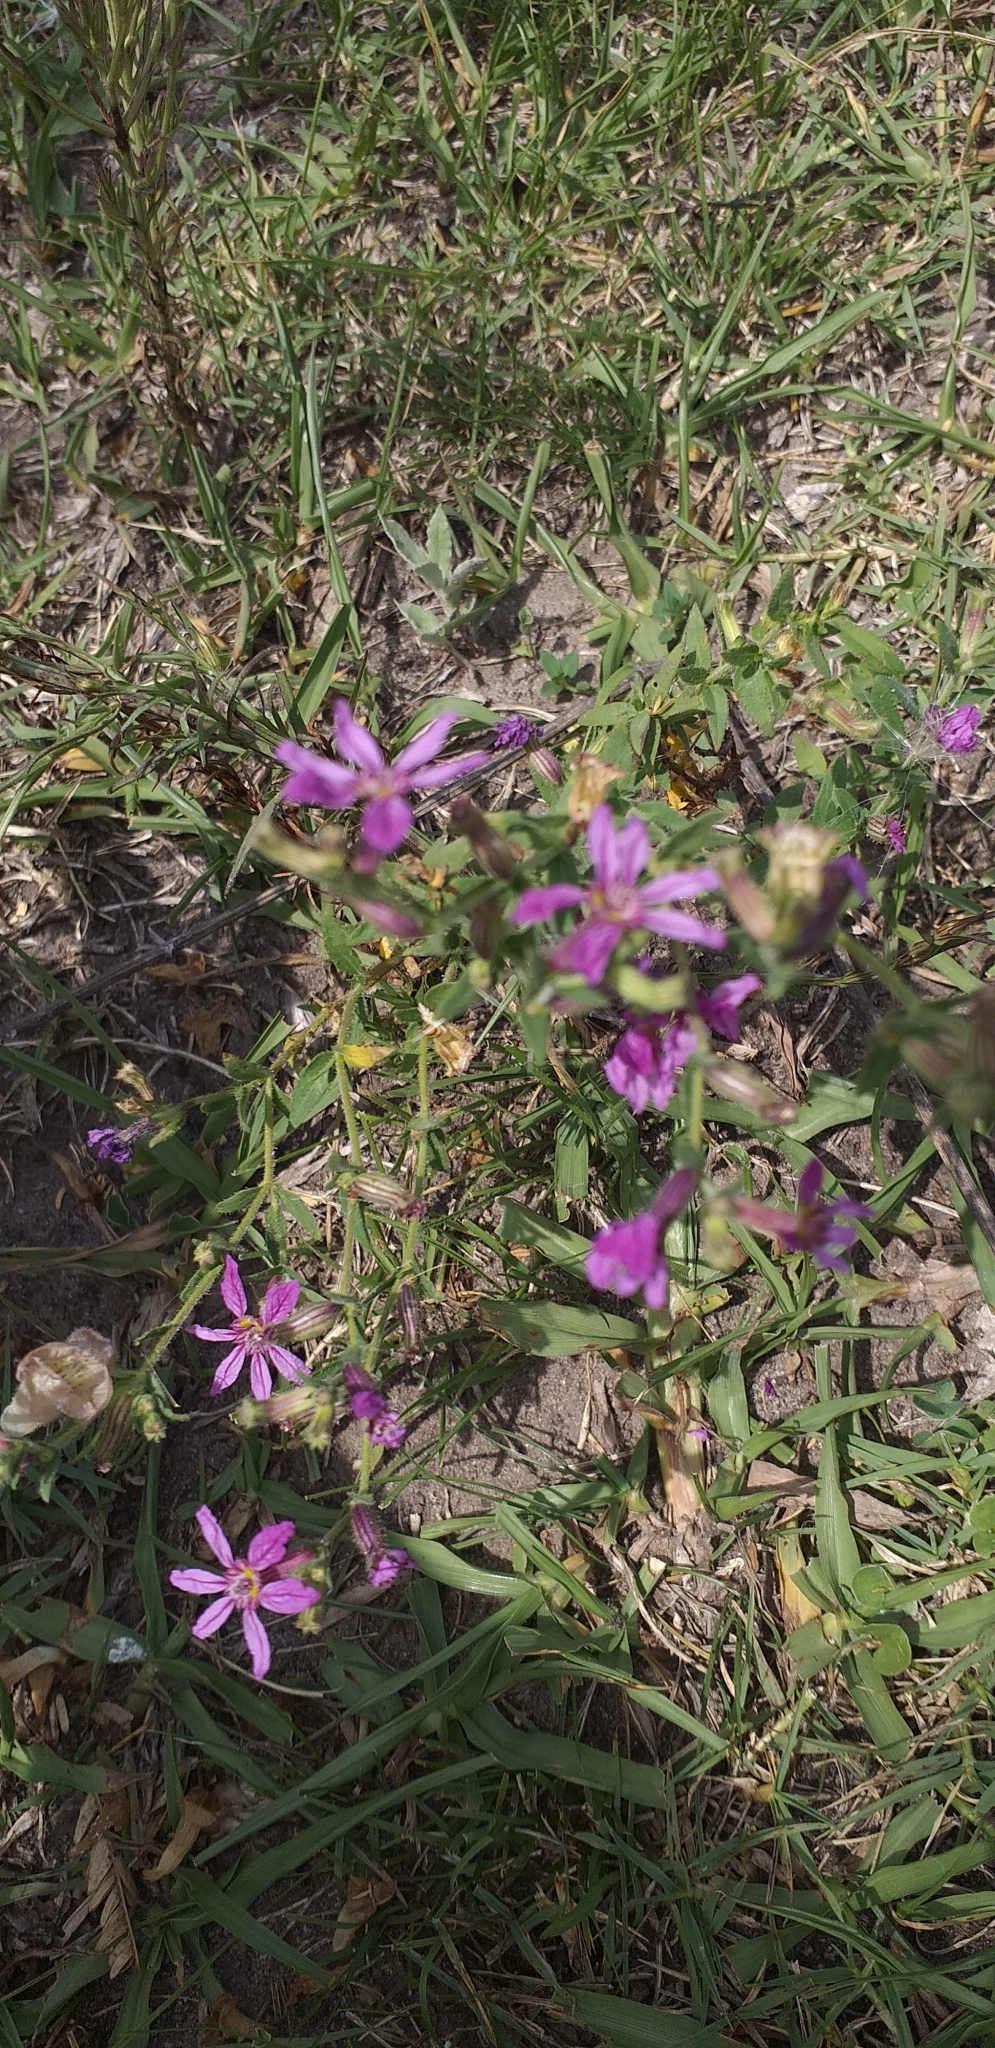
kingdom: Plantae
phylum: Tracheophyta
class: Magnoliopsida
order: Myrtales
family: Lythraceae
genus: Cuphea
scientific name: Cuphea glutinosa
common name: Sticky waxweed
